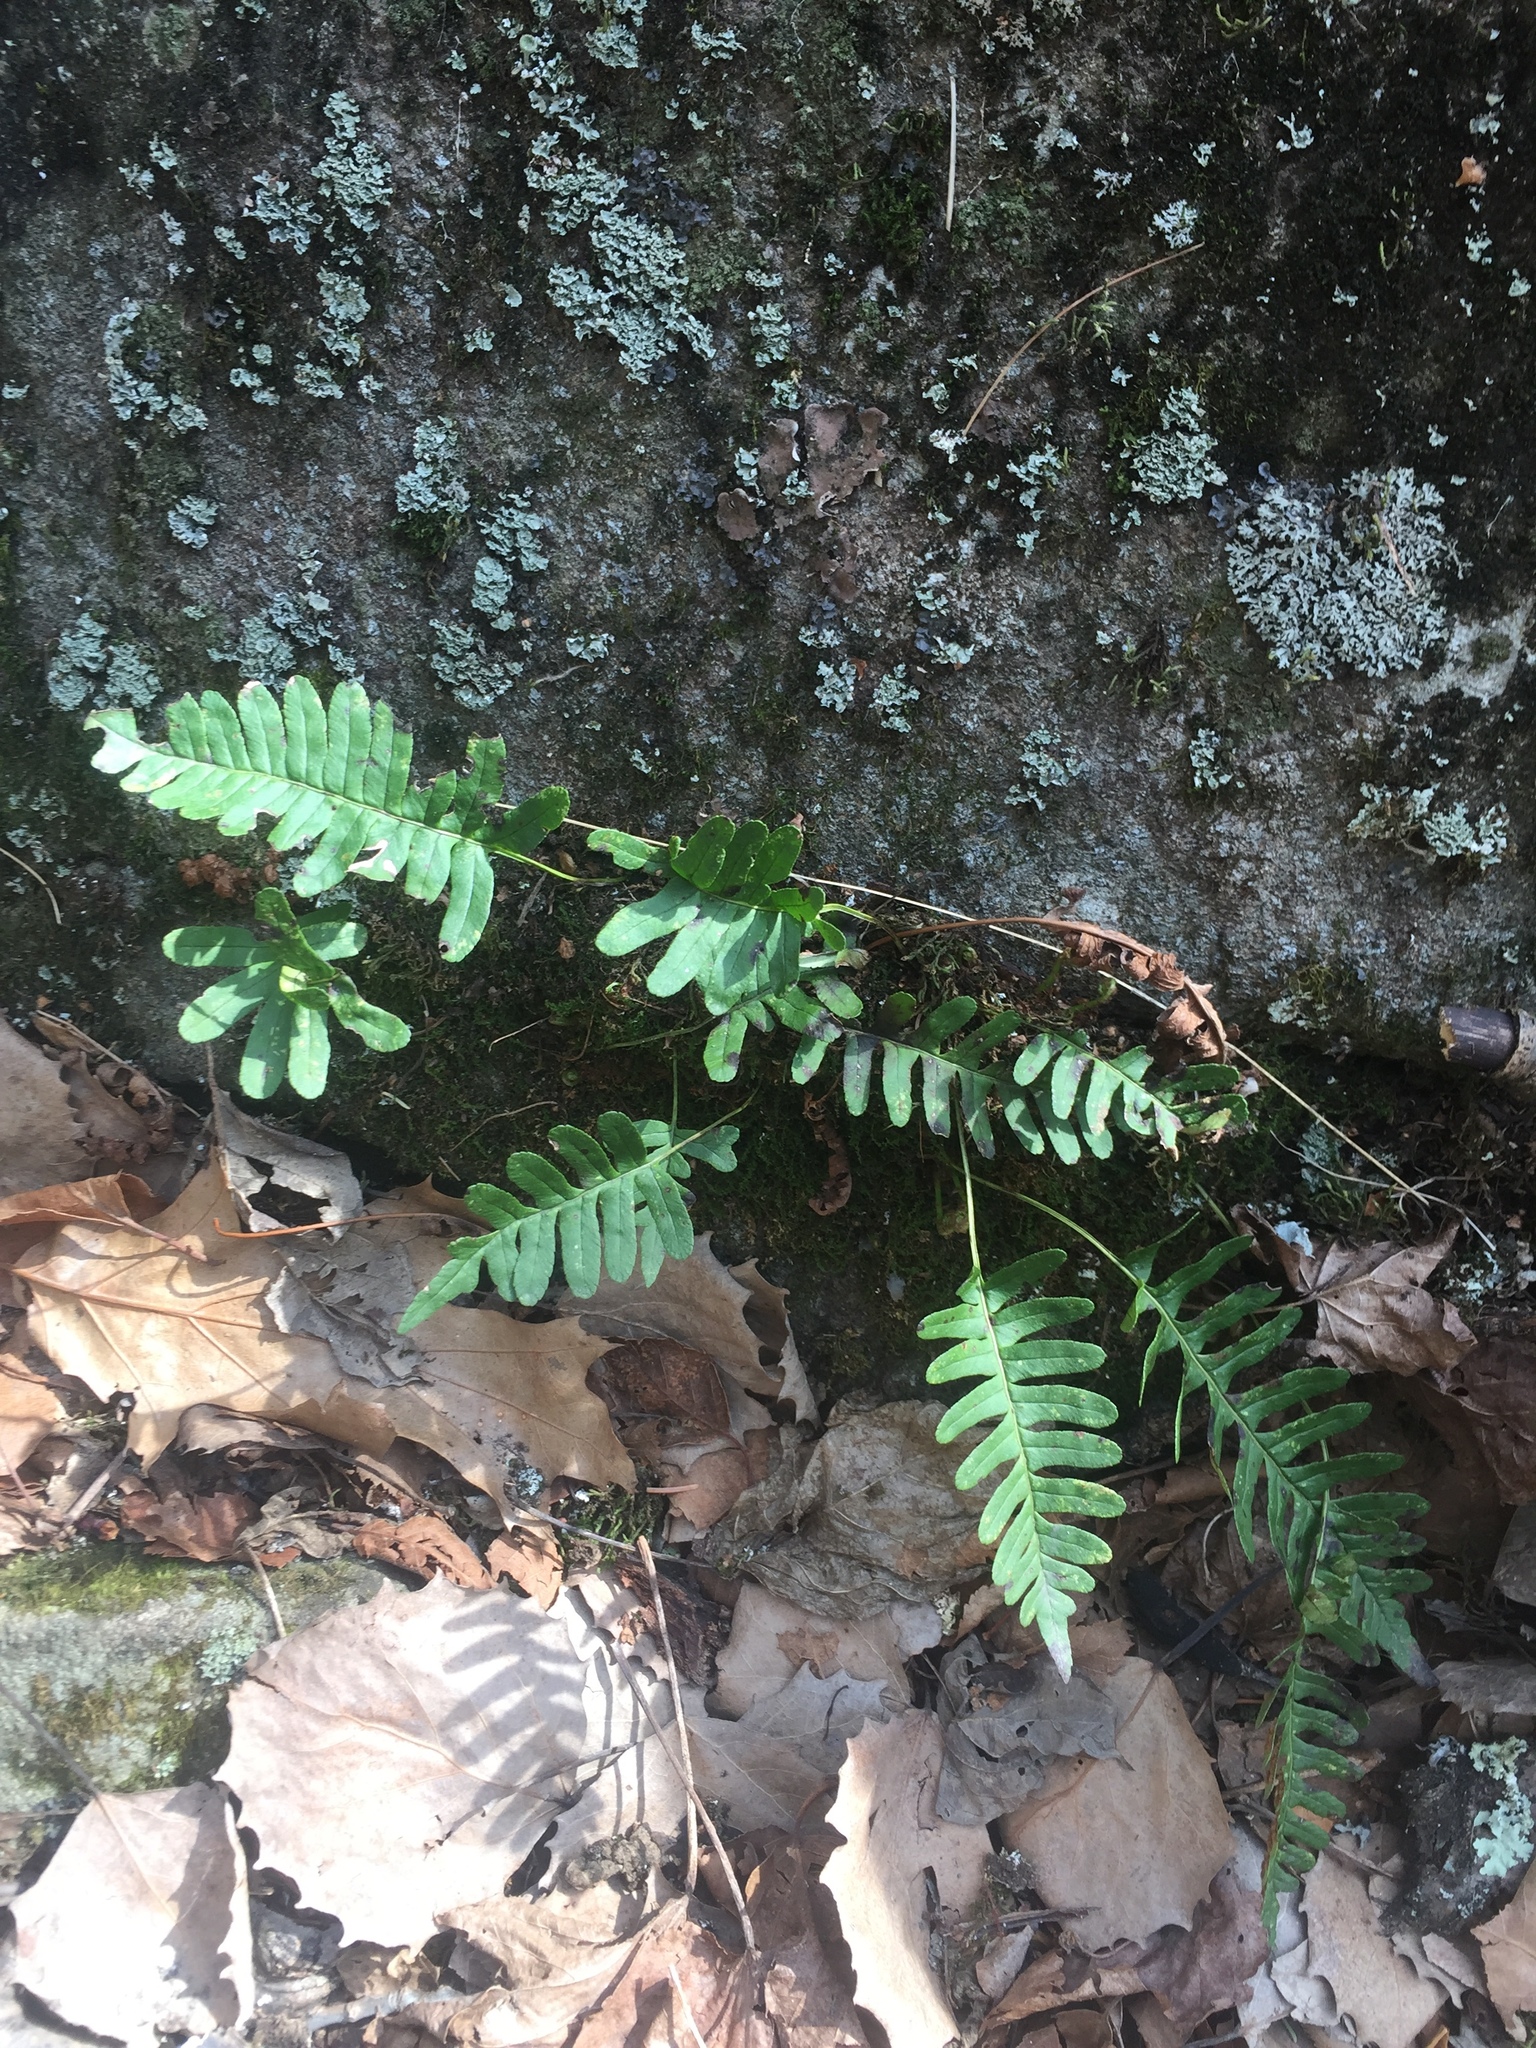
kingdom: Plantae
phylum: Tracheophyta
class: Polypodiopsida
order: Polypodiales
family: Polypodiaceae
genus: Polypodium
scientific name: Polypodium virginianum
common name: American wall fern
